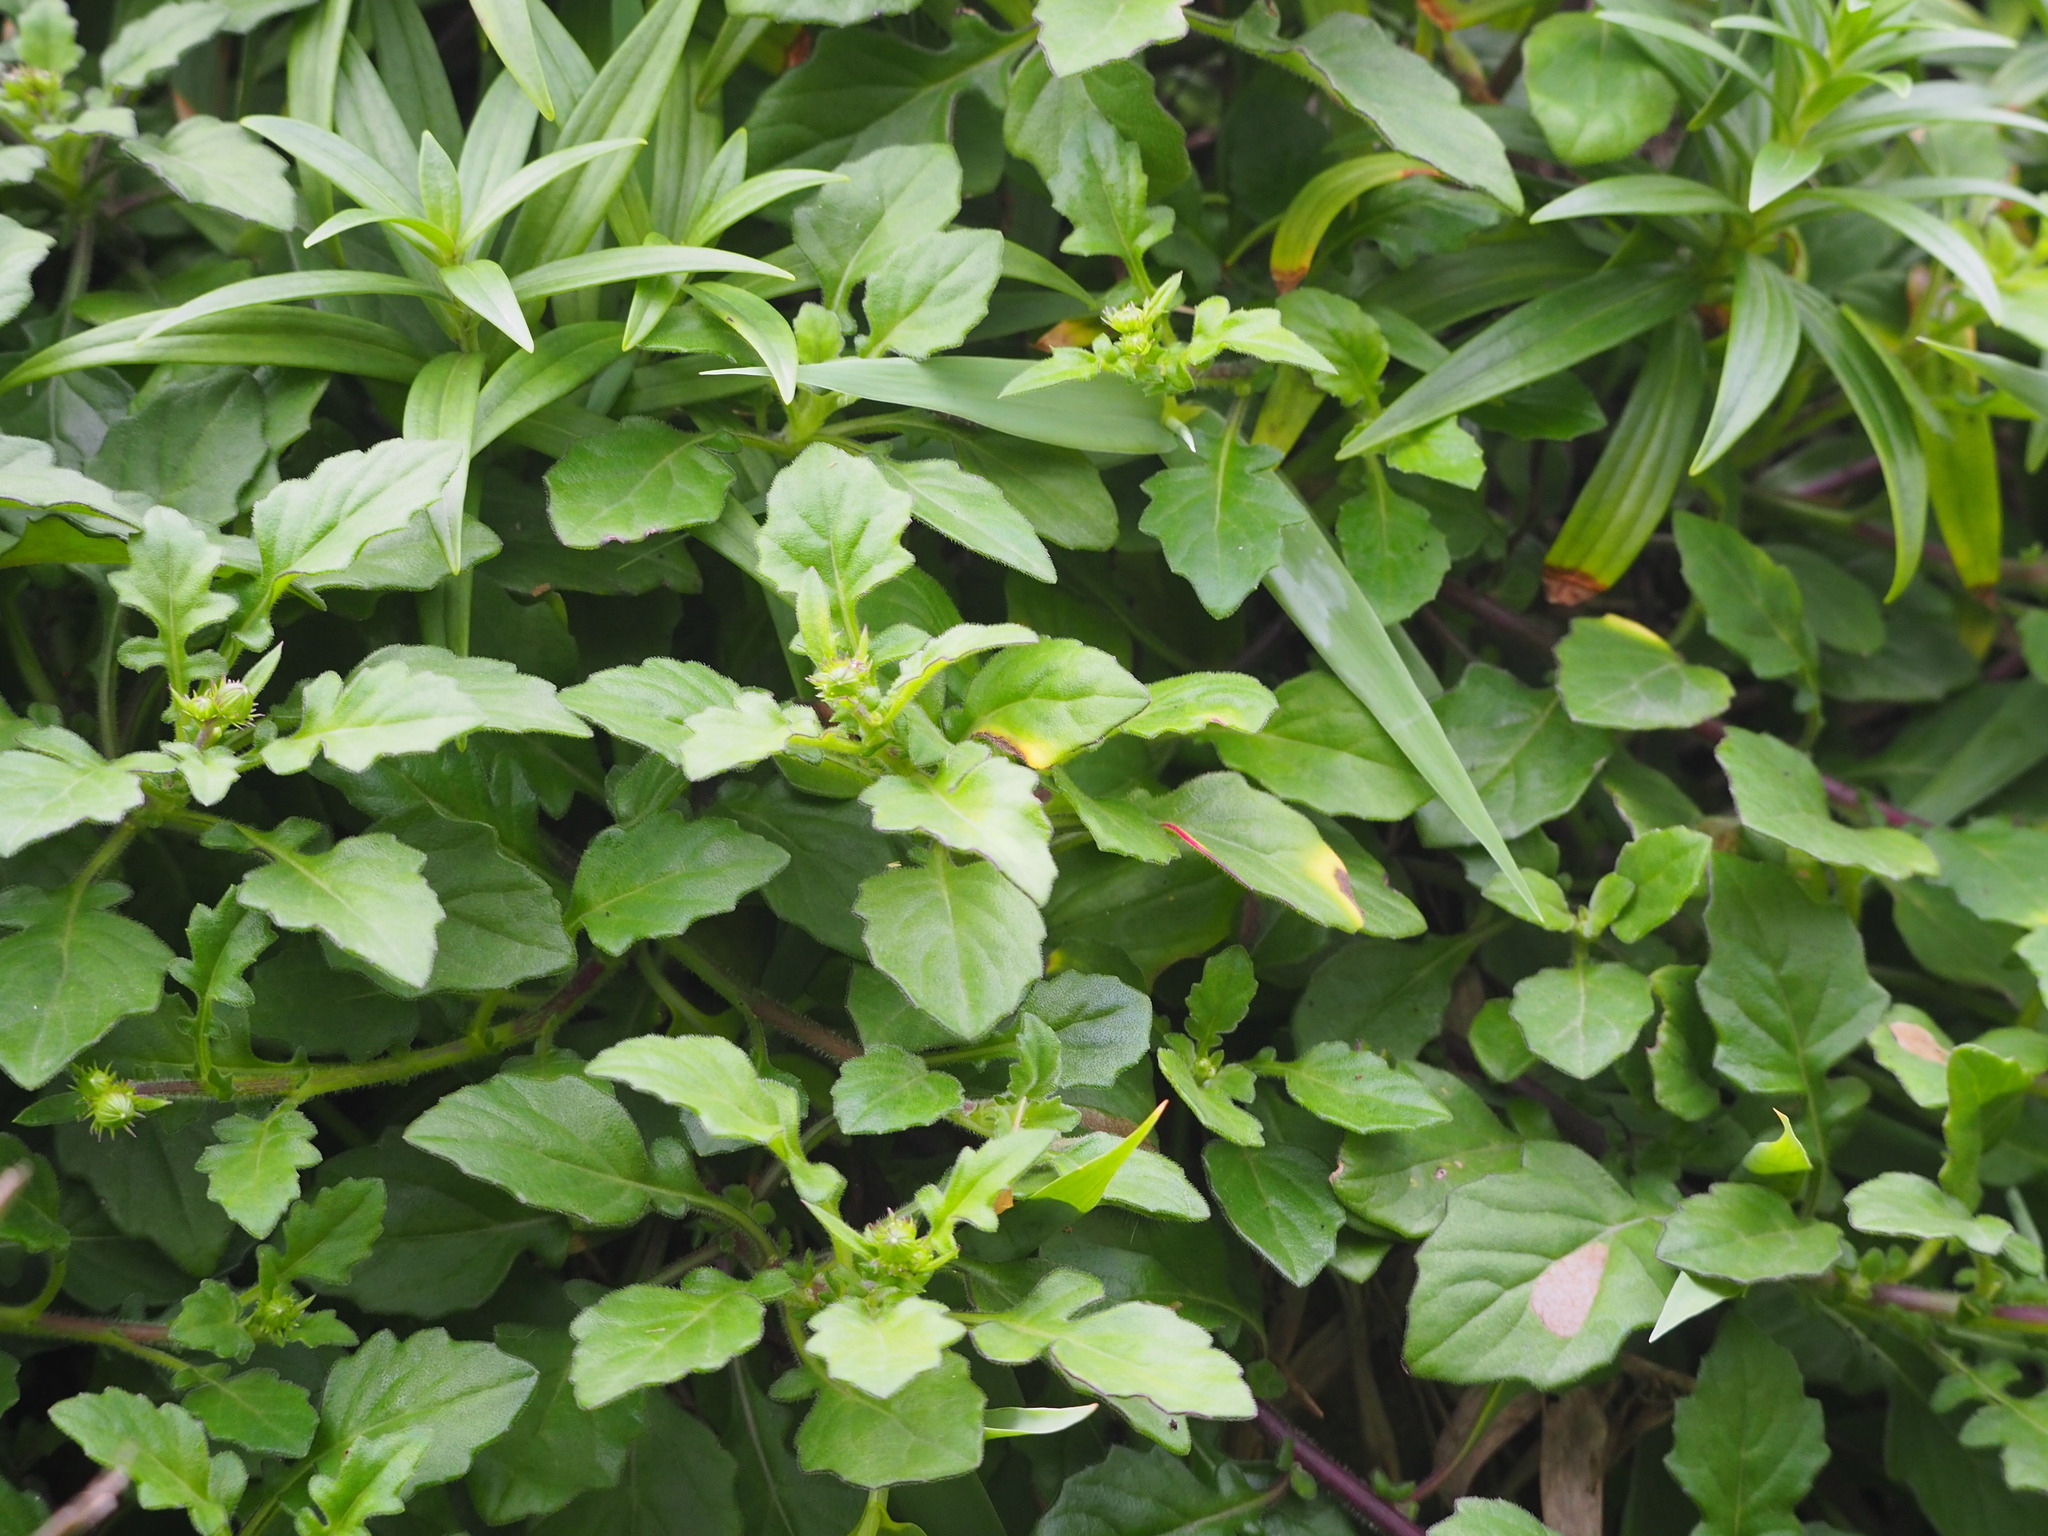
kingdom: Plantae
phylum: Tracheophyta
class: Magnoliopsida
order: Asterales
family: Asteraceae
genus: Gynura
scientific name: Gynura formosana
